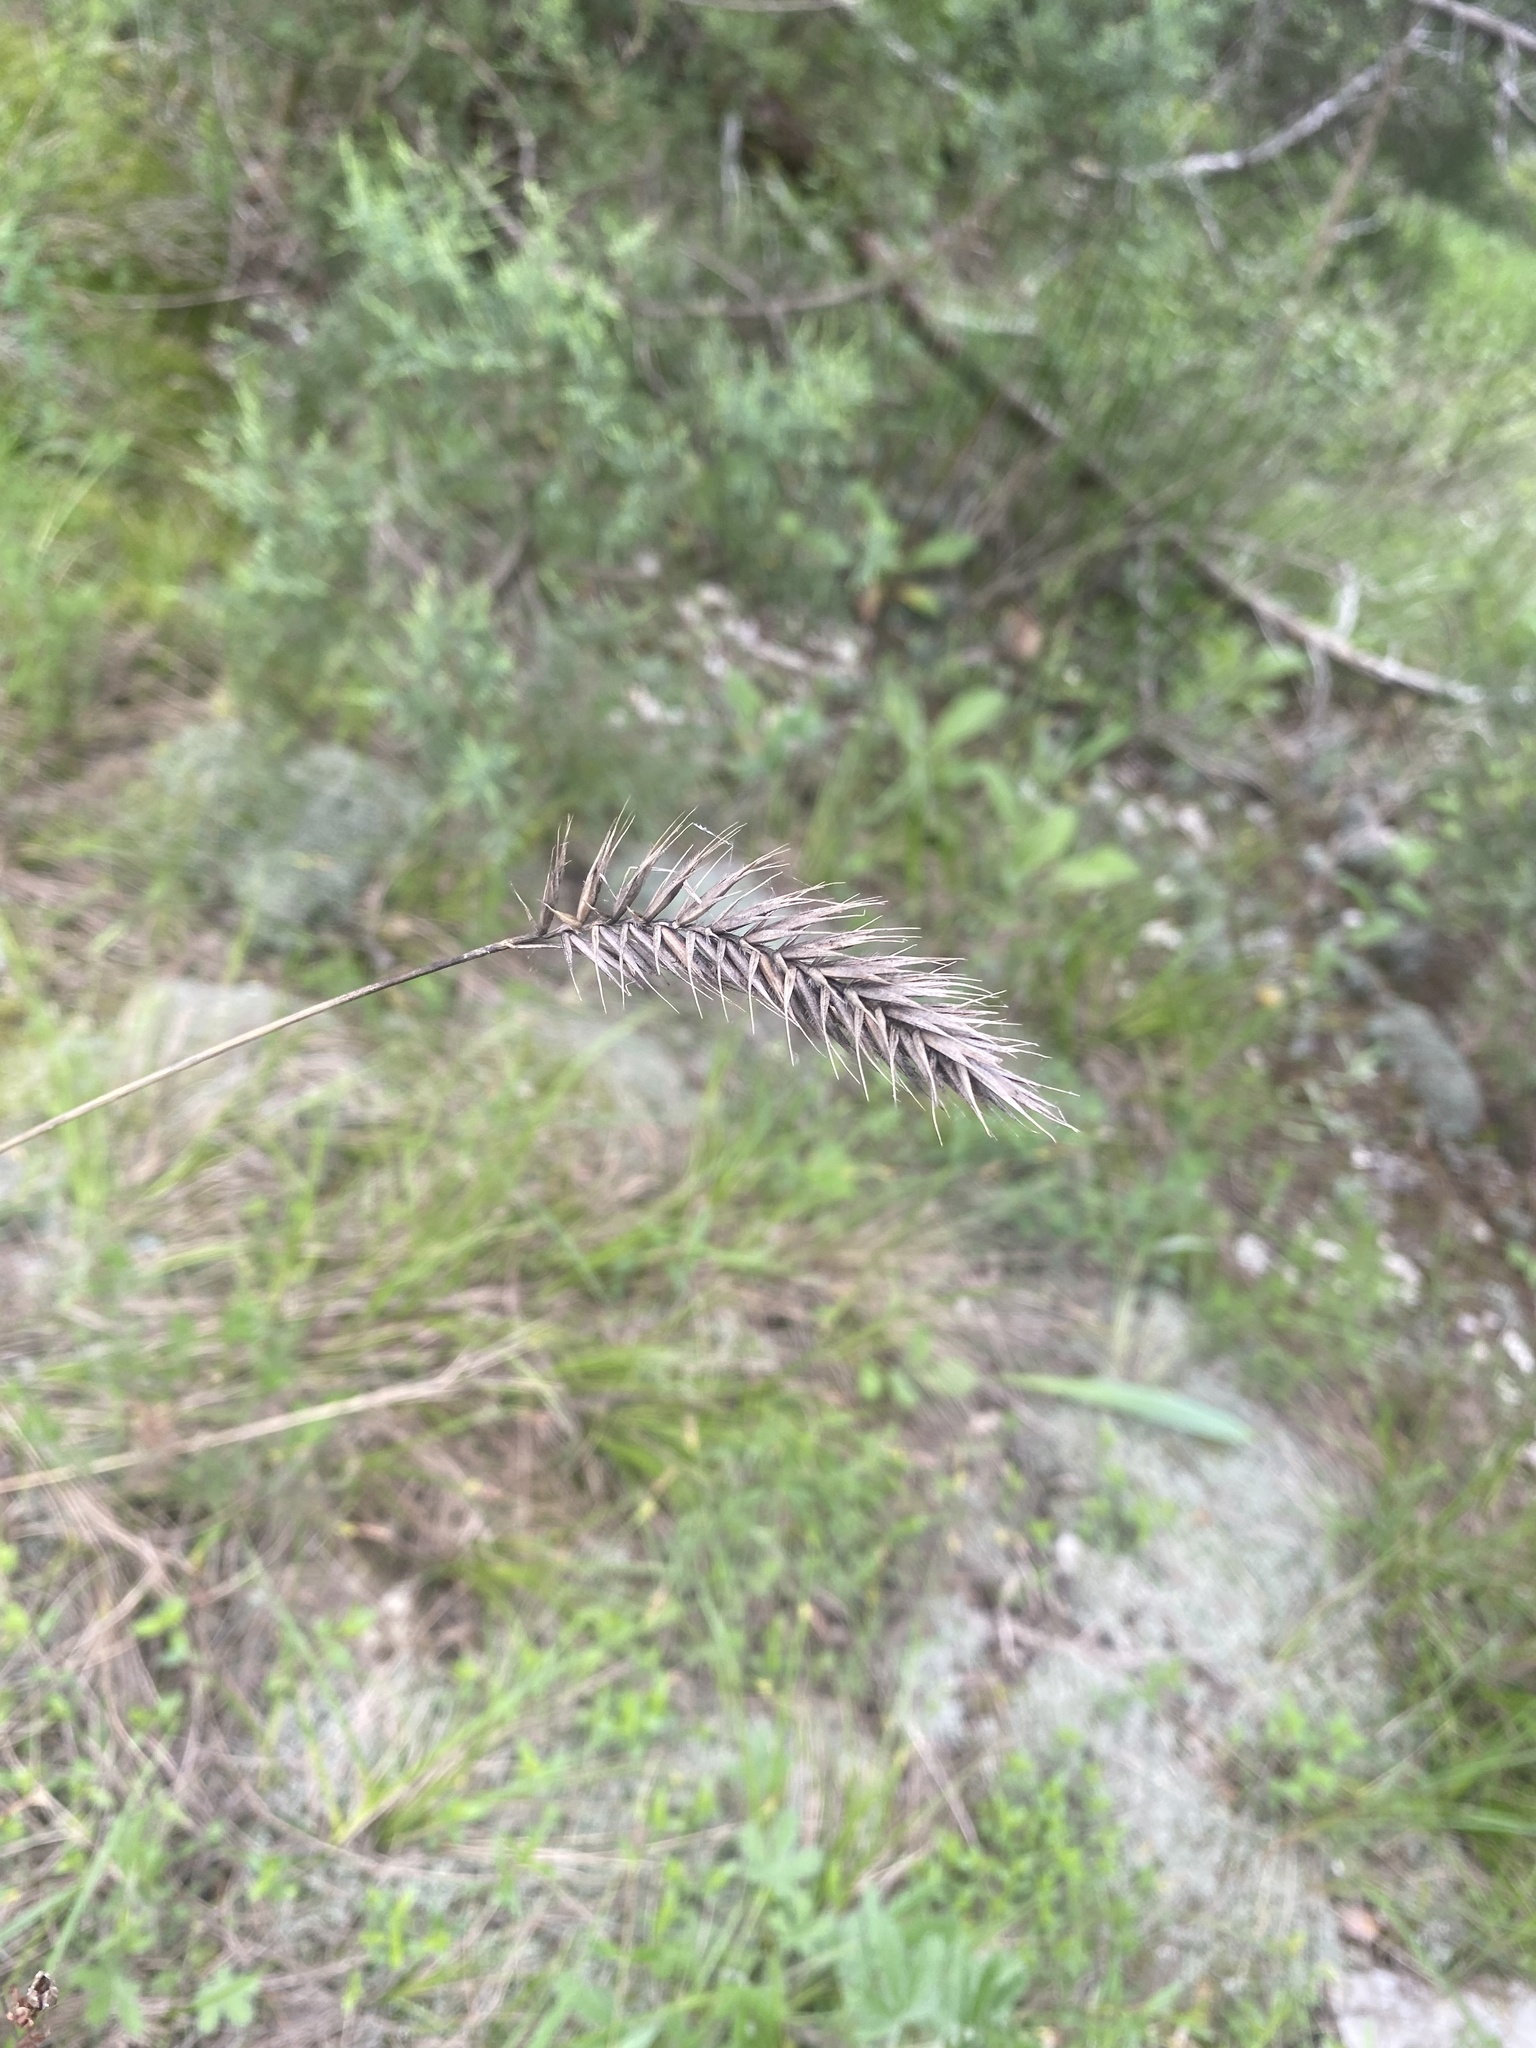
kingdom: Plantae
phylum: Tracheophyta
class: Liliopsida
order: Poales
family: Poaceae
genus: Agropyron
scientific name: Agropyron cristatum
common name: Crested wheatgrass
